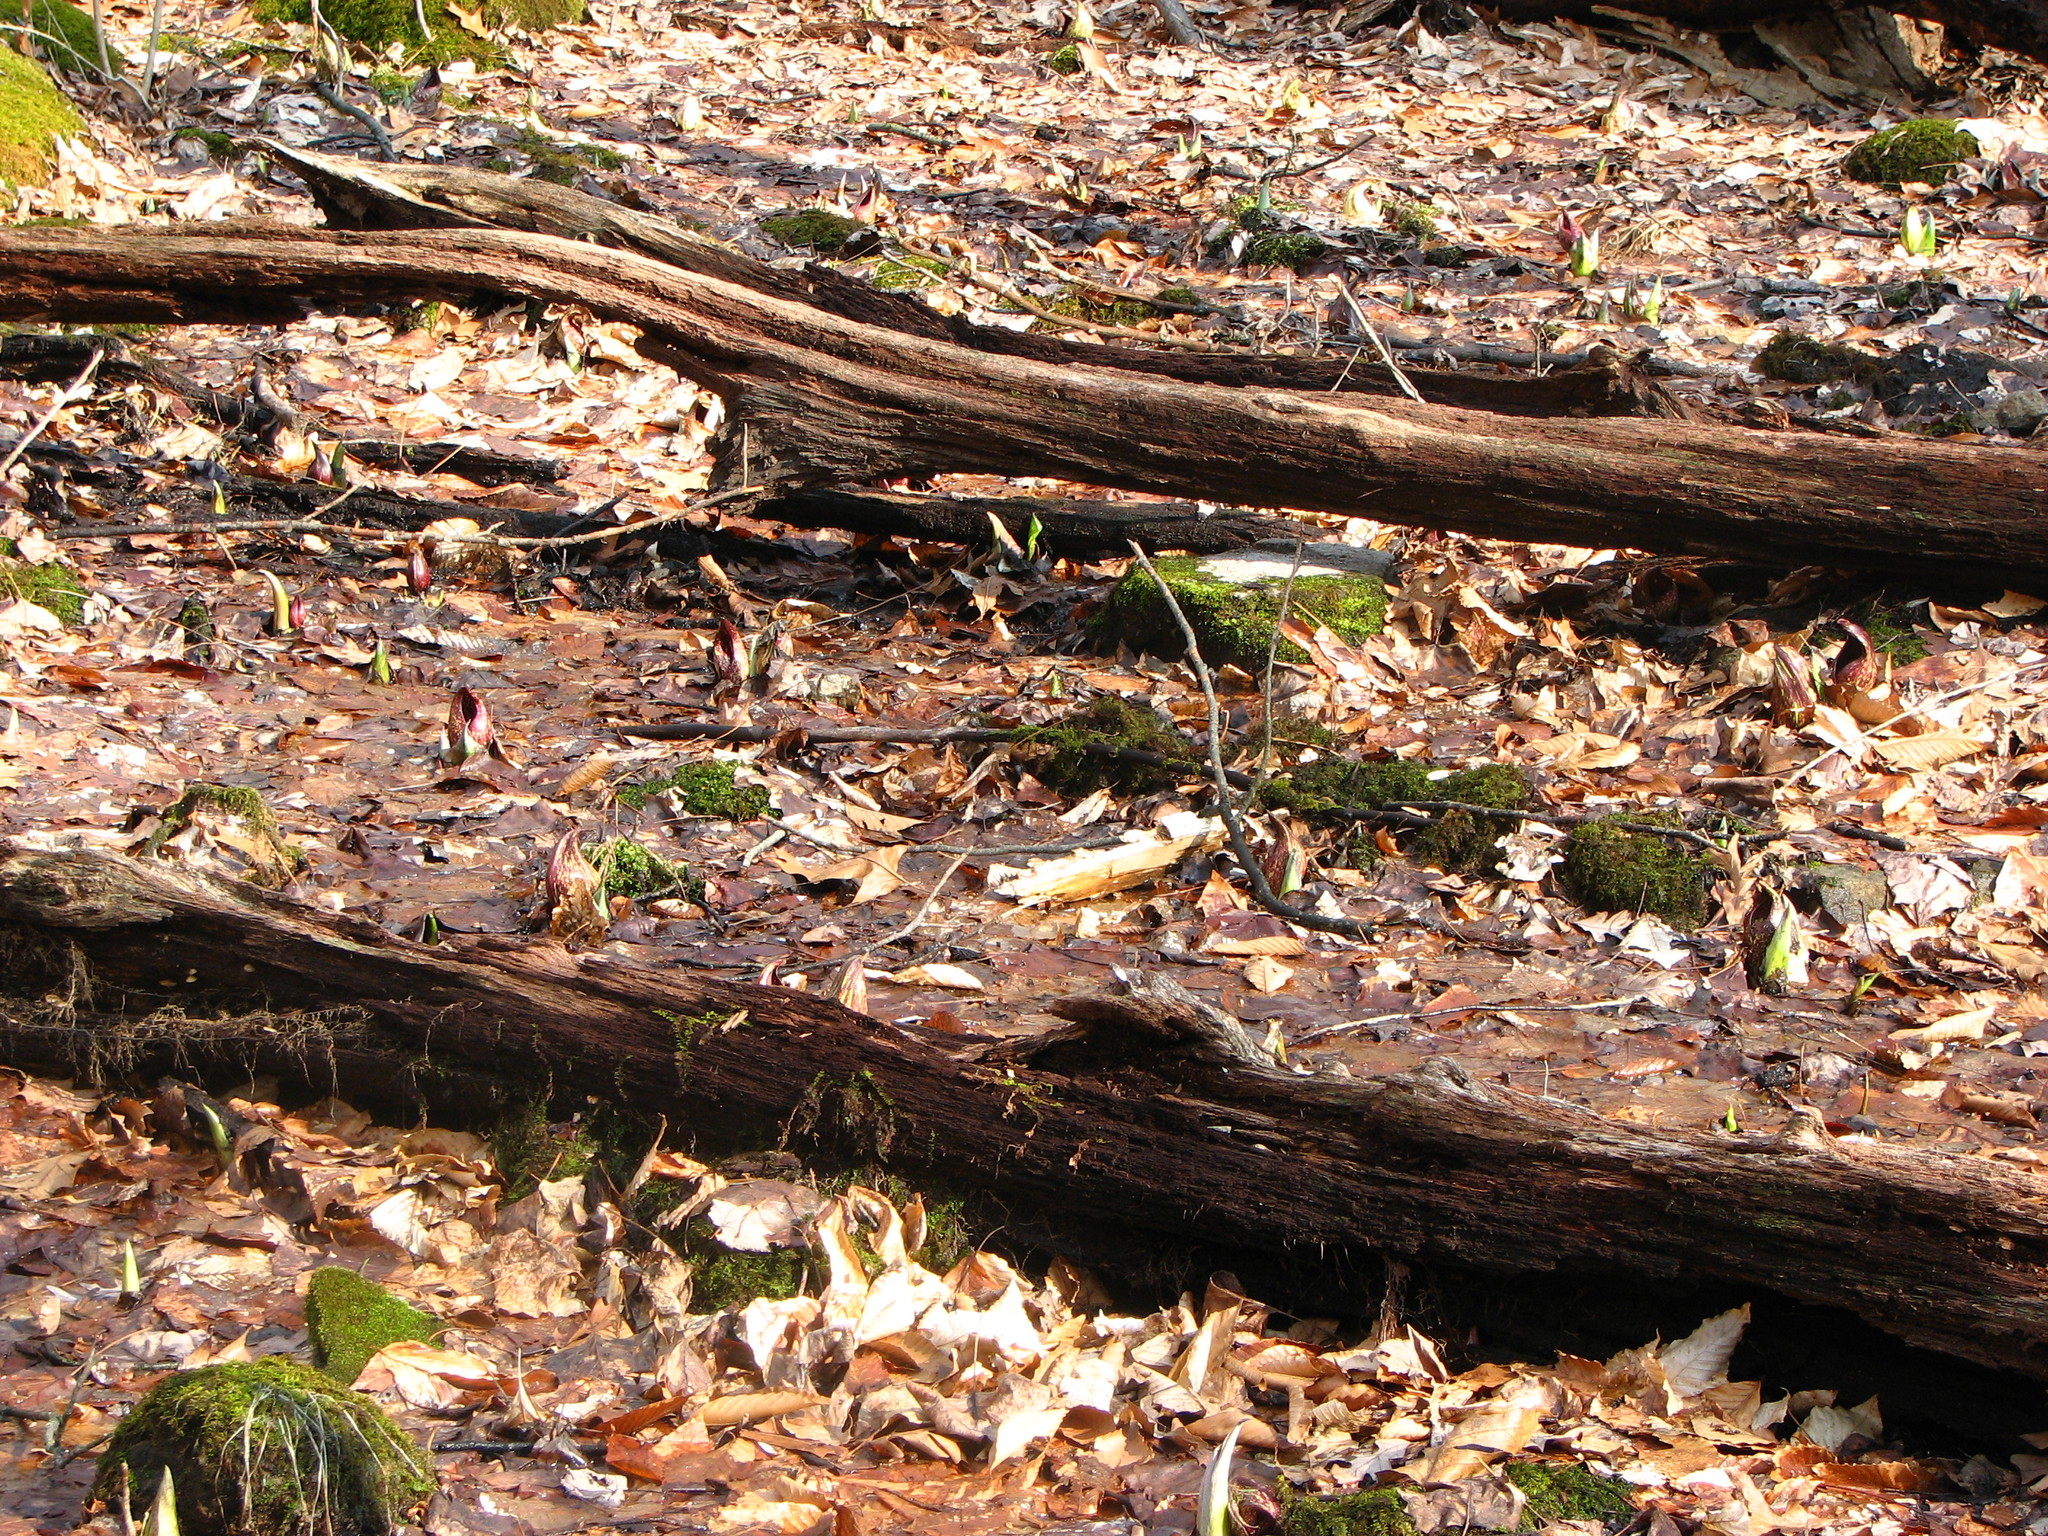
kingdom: Plantae
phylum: Tracheophyta
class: Liliopsida
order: Alismatales
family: Araceae
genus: Symplocarpus
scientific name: Symplocarpus foetidus
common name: Eastern skunk cabbage
